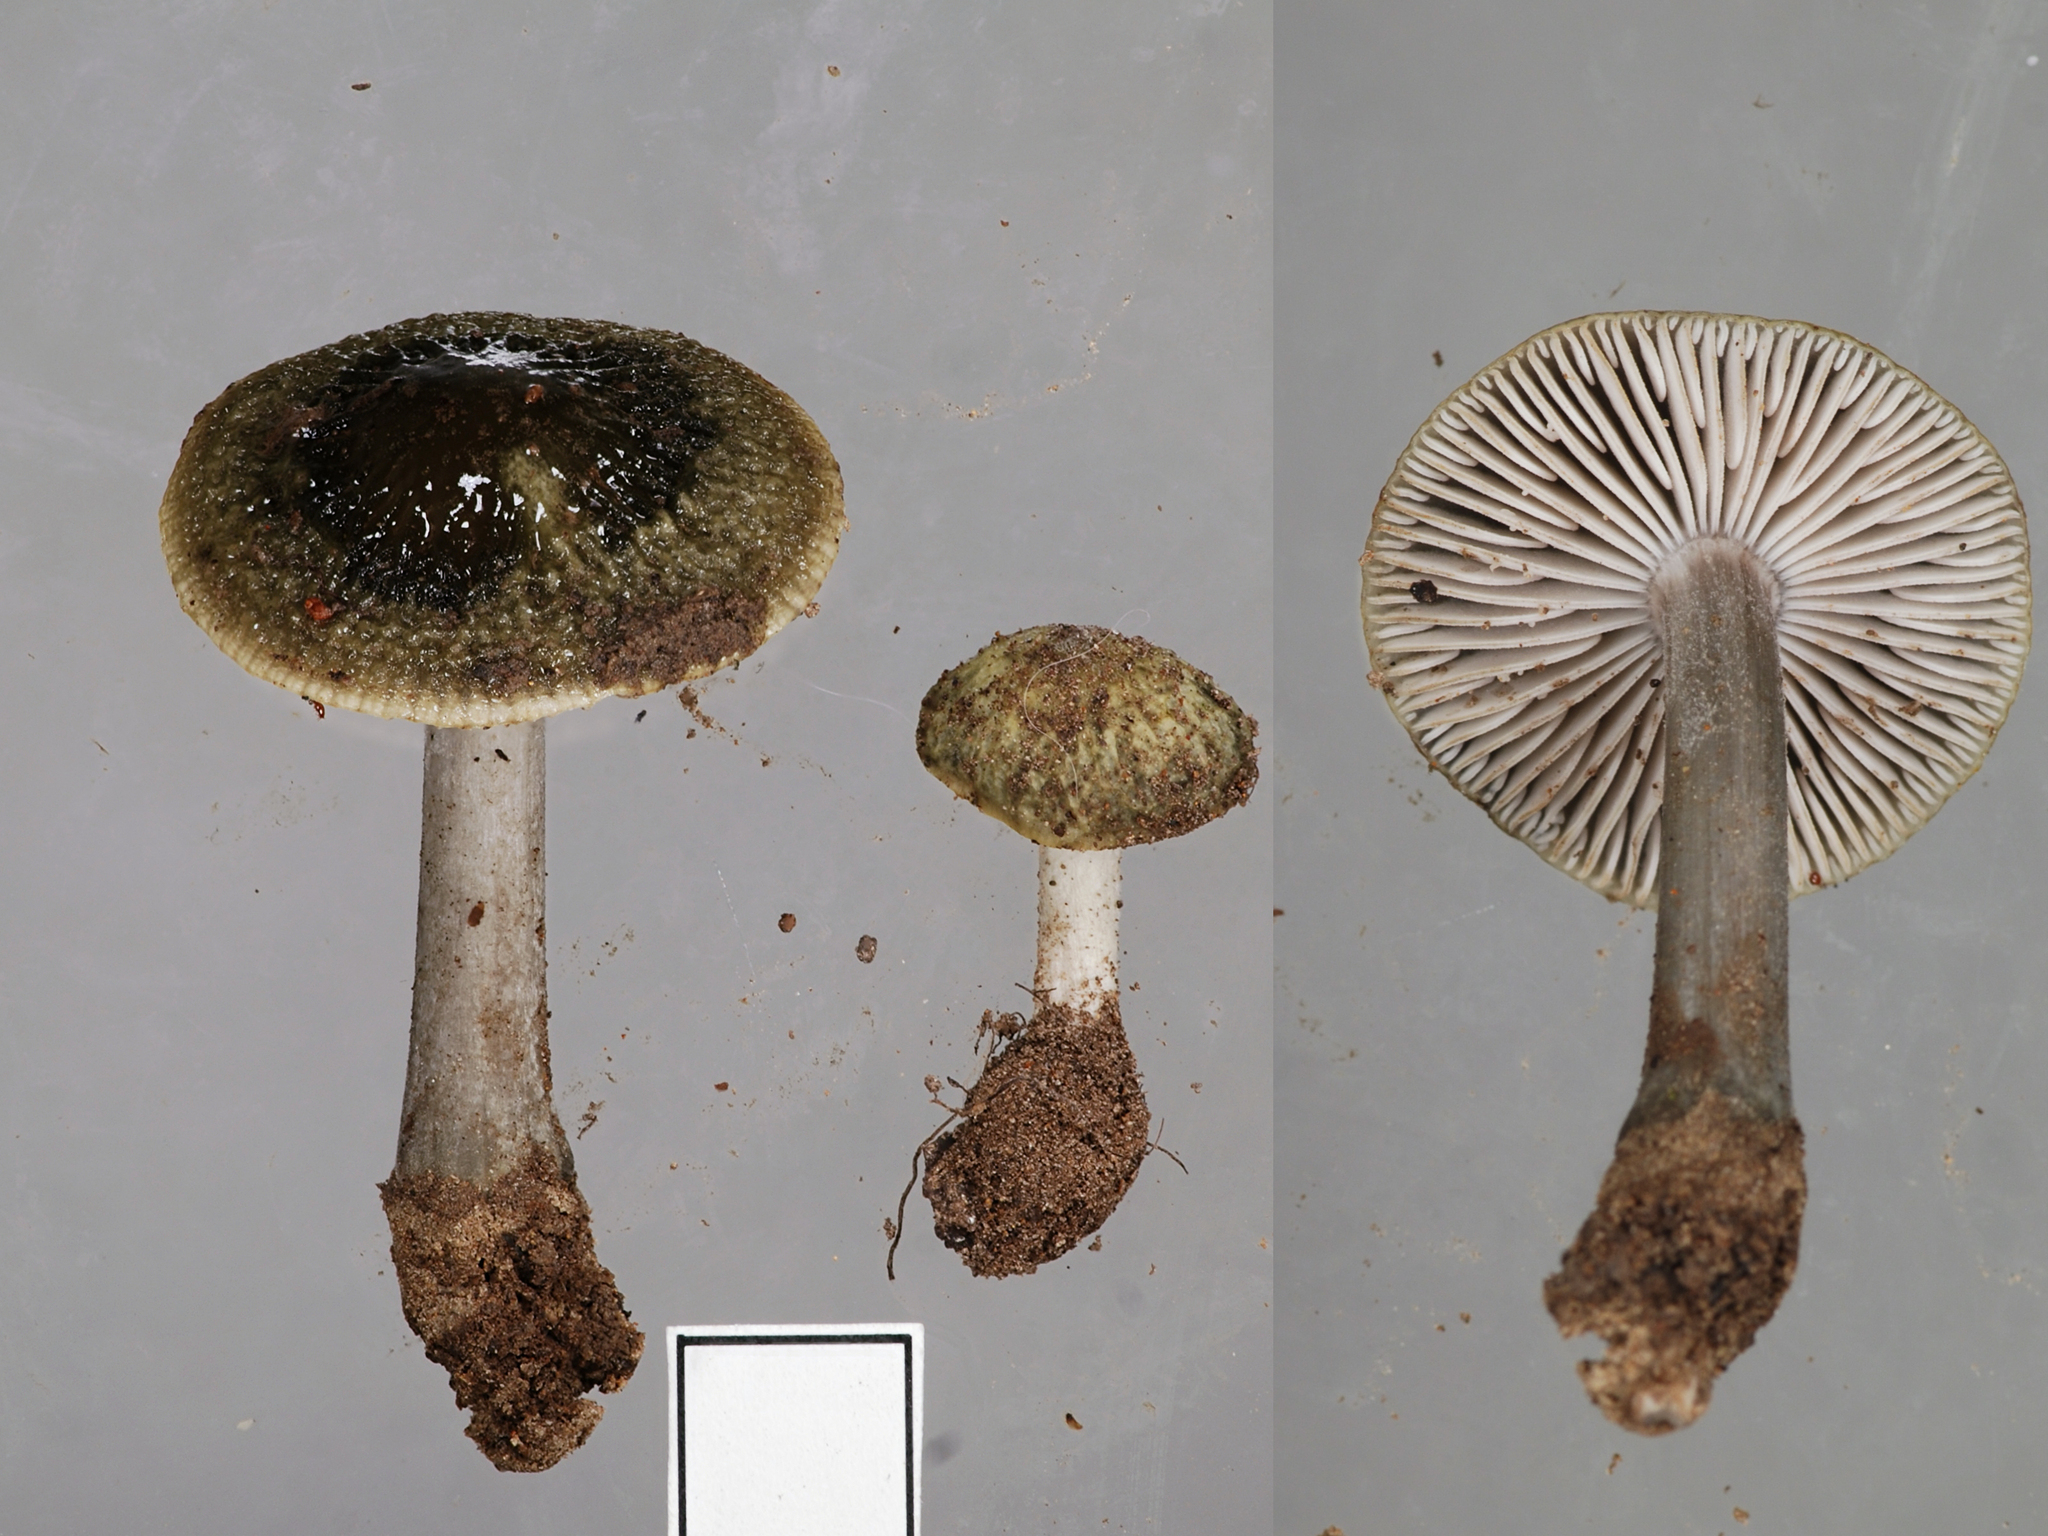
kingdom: Fungi
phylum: Basidiomycota
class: Agaricomycetes
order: Agaricales
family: Physalacriaceae
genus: Hymenopellis
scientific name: Hymenopellis colensoi
